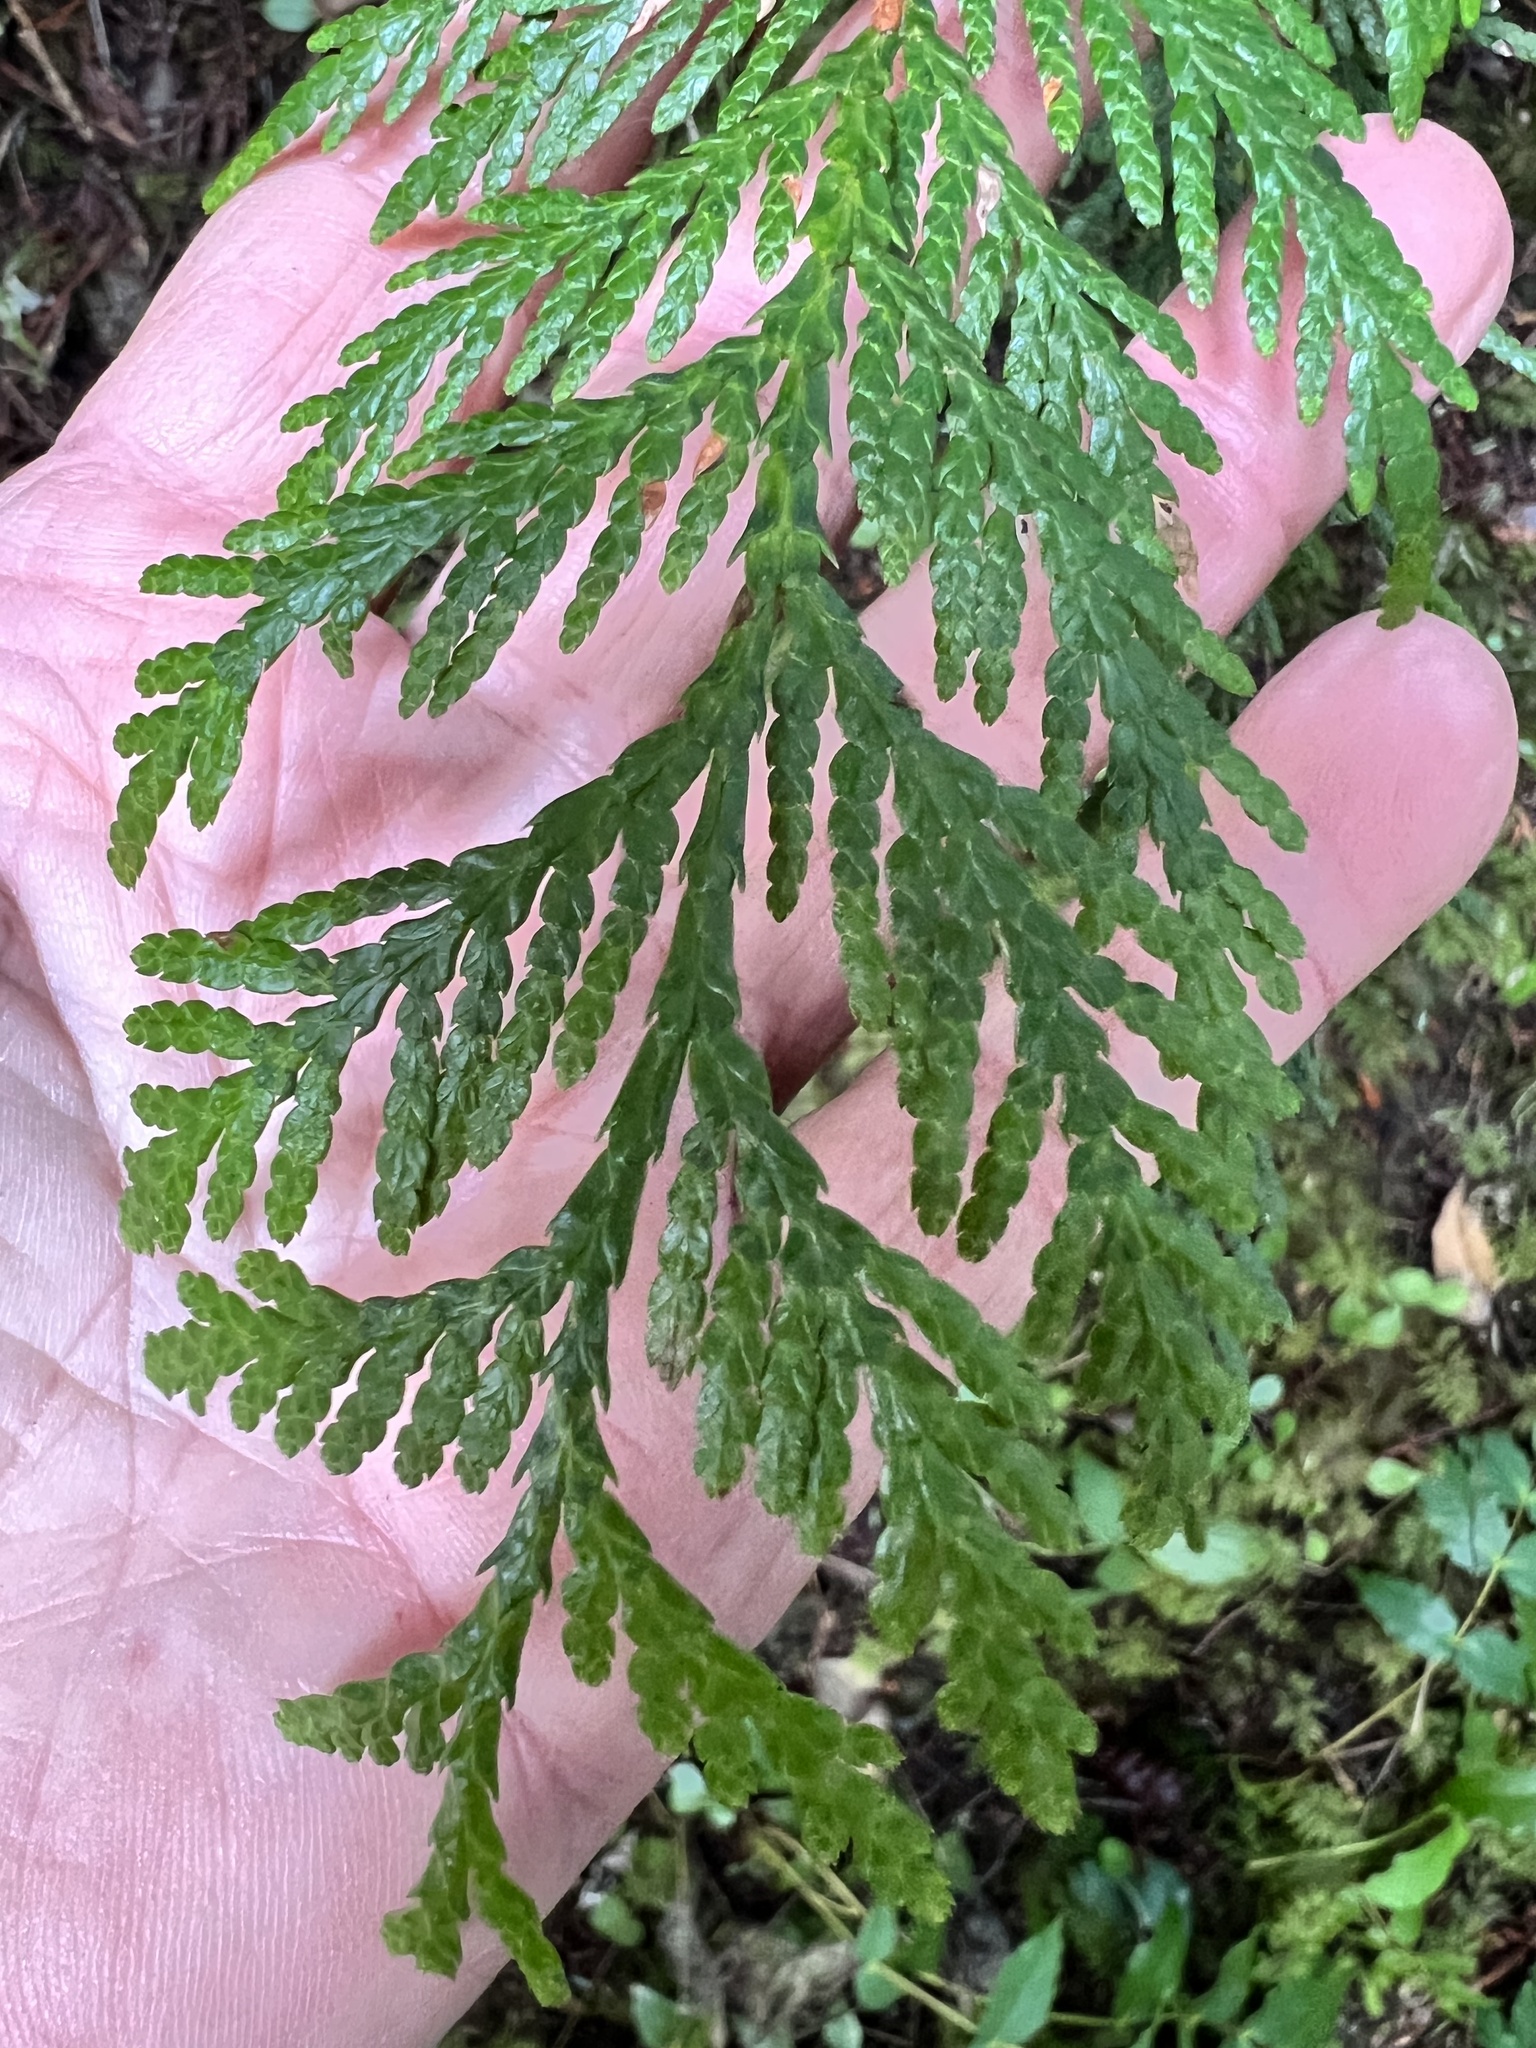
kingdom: Plantae
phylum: Tracheophyta
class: Pinopsida
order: Pinales
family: Cupressaceae
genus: Thuja
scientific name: Thuja plicata
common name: Western red-cedar
